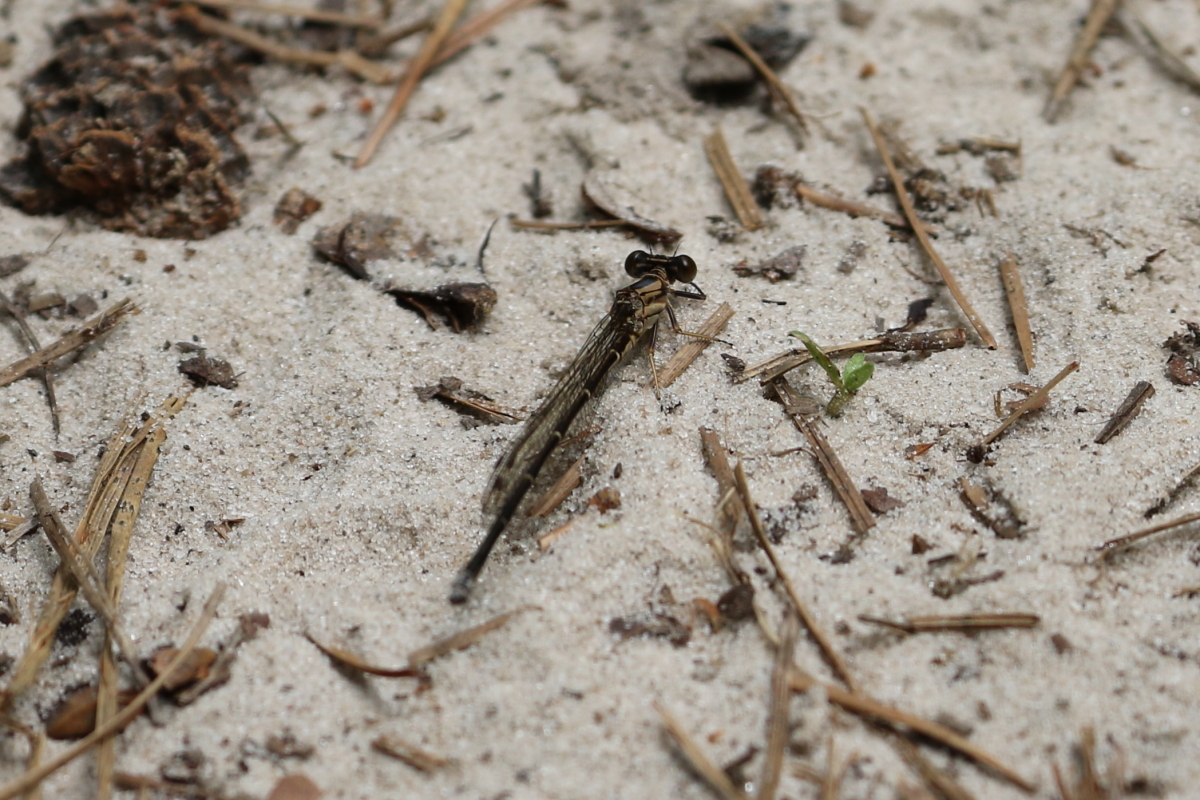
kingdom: Animalia
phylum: Arthropoda
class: Insecta
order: Odonata
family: Coenagrionidae
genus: Argia
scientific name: Argia moesta
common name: Powdered dancer
